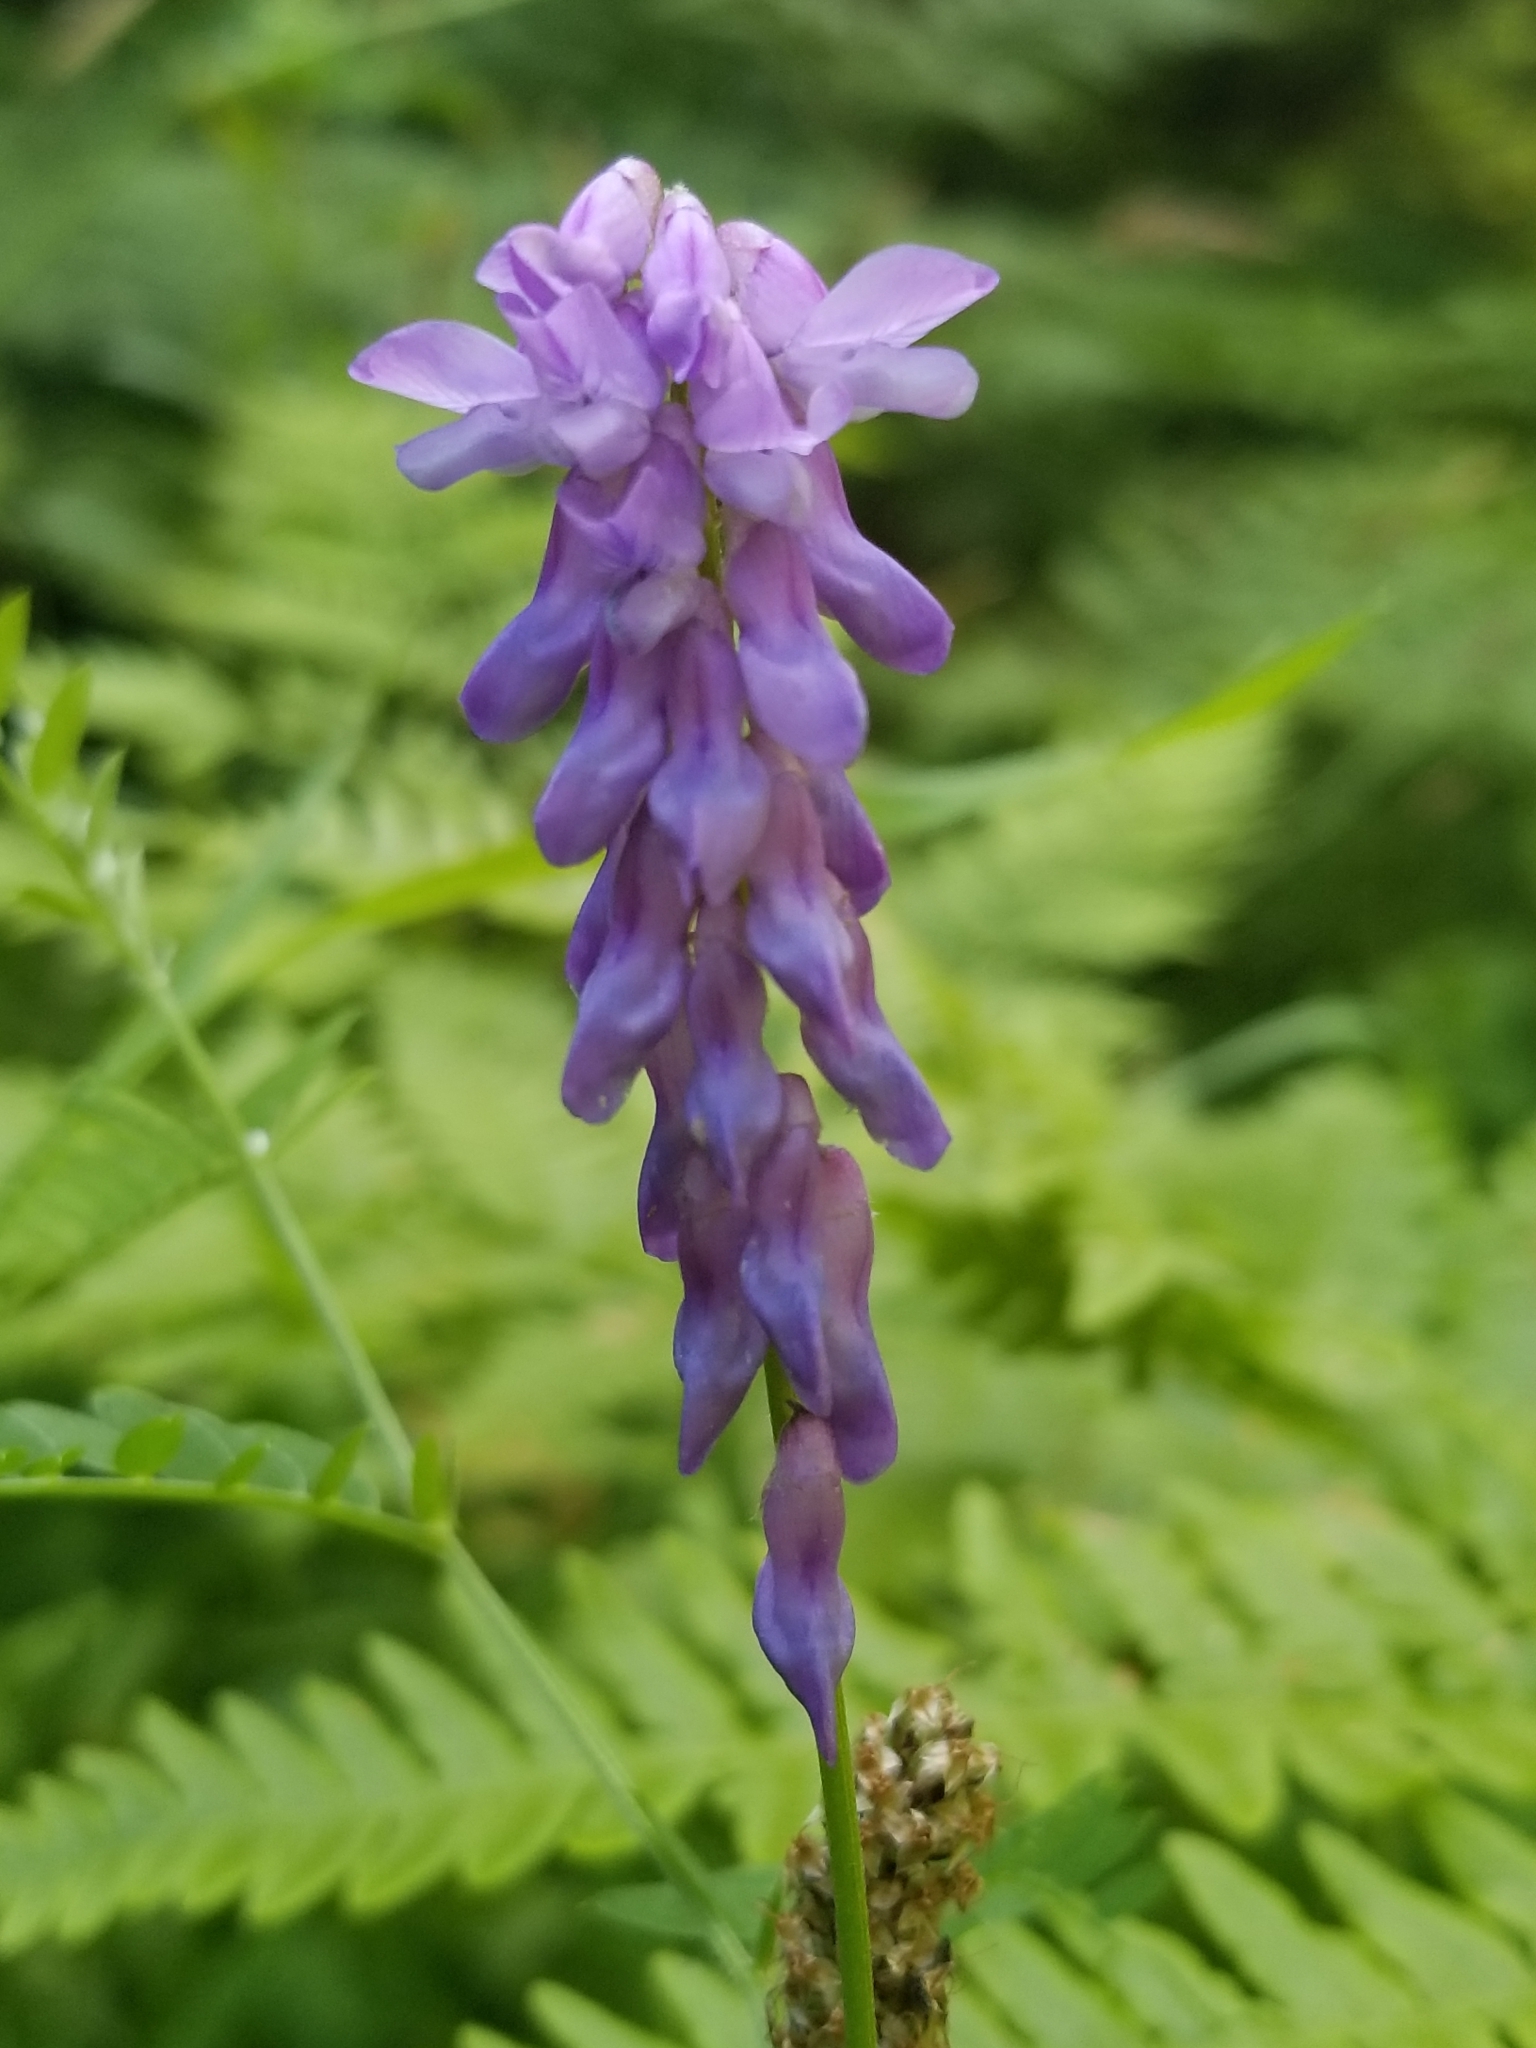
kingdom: Plantae
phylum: Tracheophyta
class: Magnoliopsida
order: Fabales
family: Fabaceae
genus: Vicia
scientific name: Vicia cracca
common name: Bird vetch
